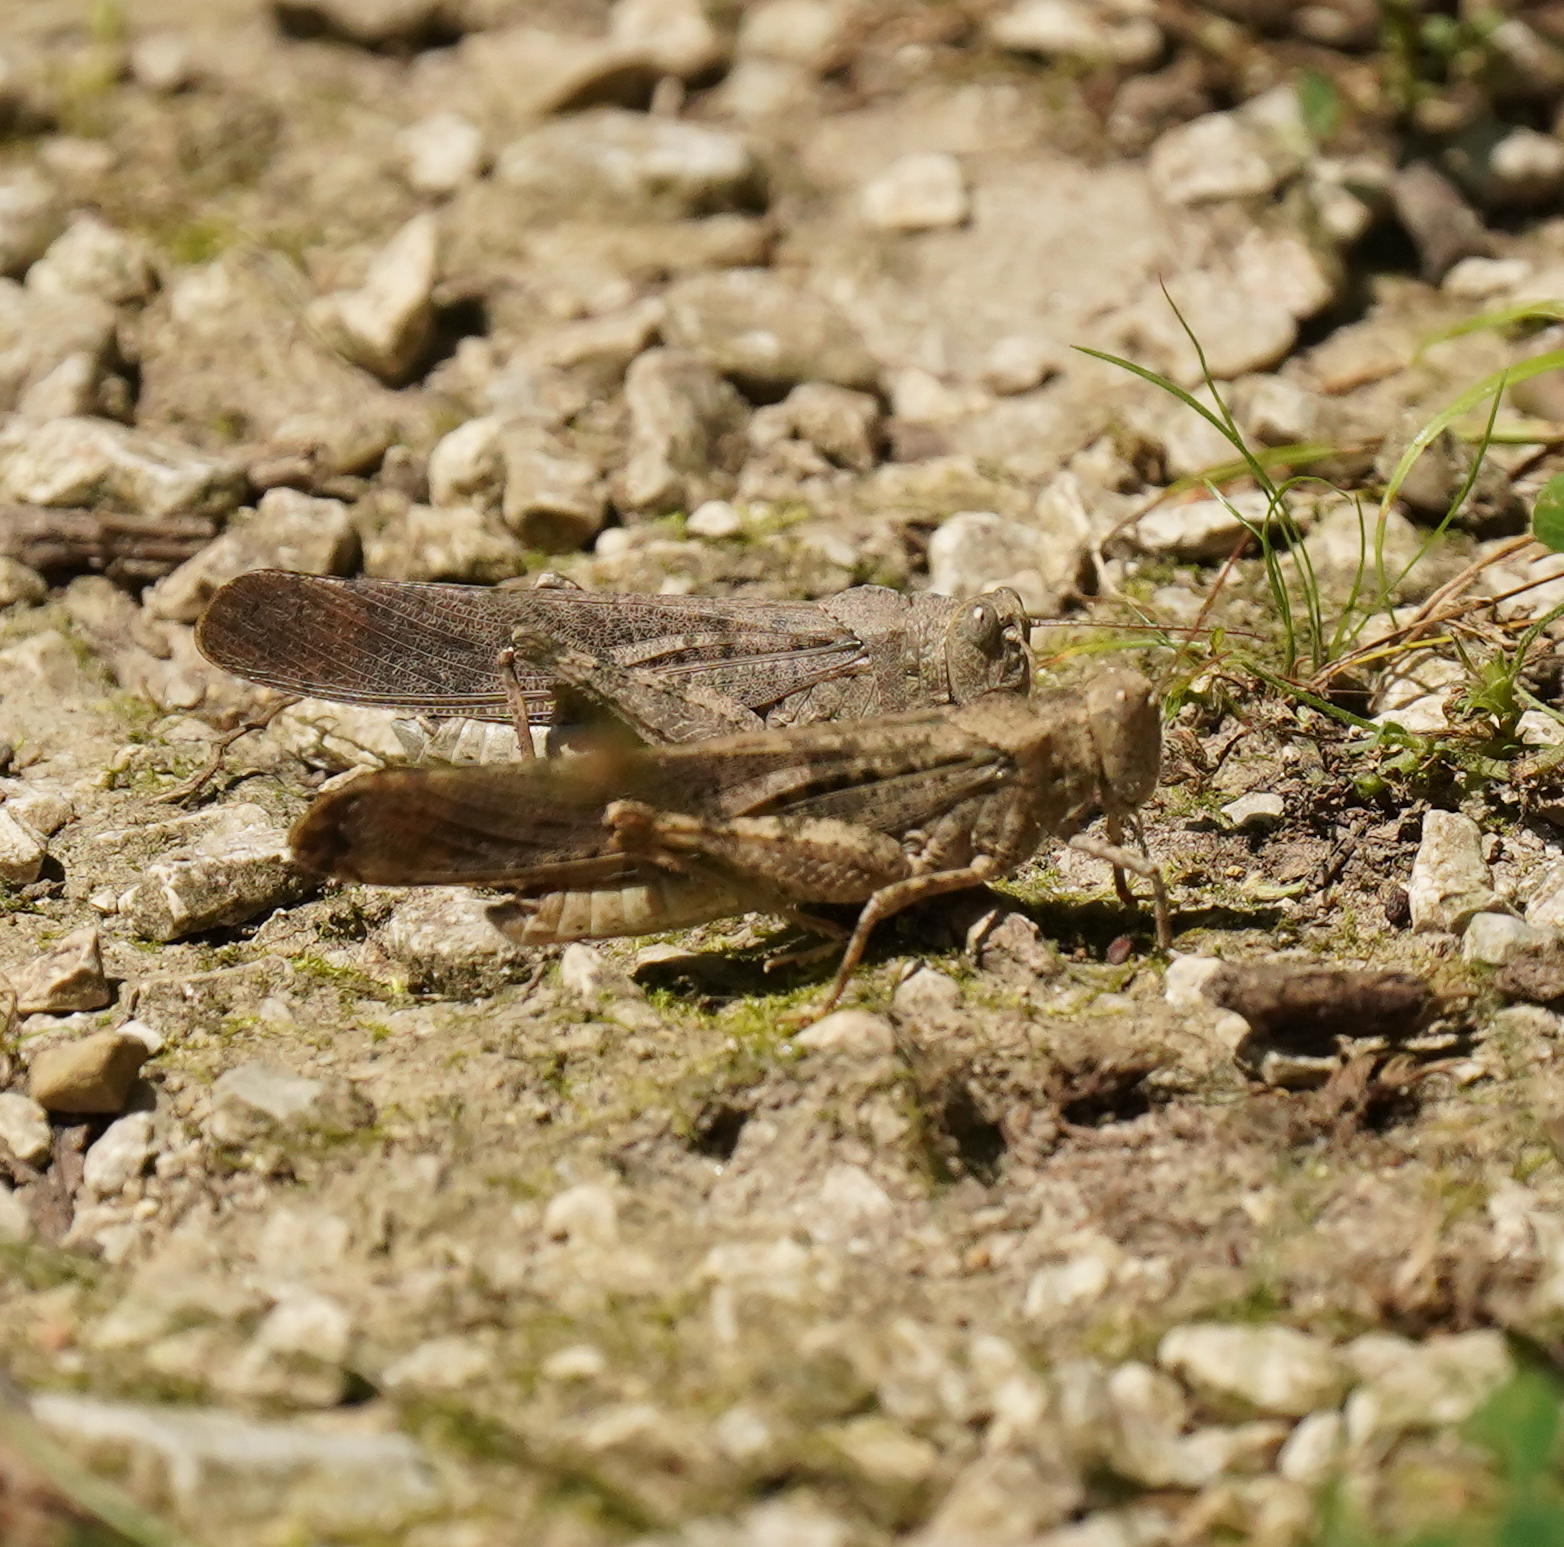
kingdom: Animalia
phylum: Arthropoda
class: Insecta
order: Orthoptera
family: Acrididae
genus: Dissosteira
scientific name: Dissosteira carolina
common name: Carolina grasshopper
